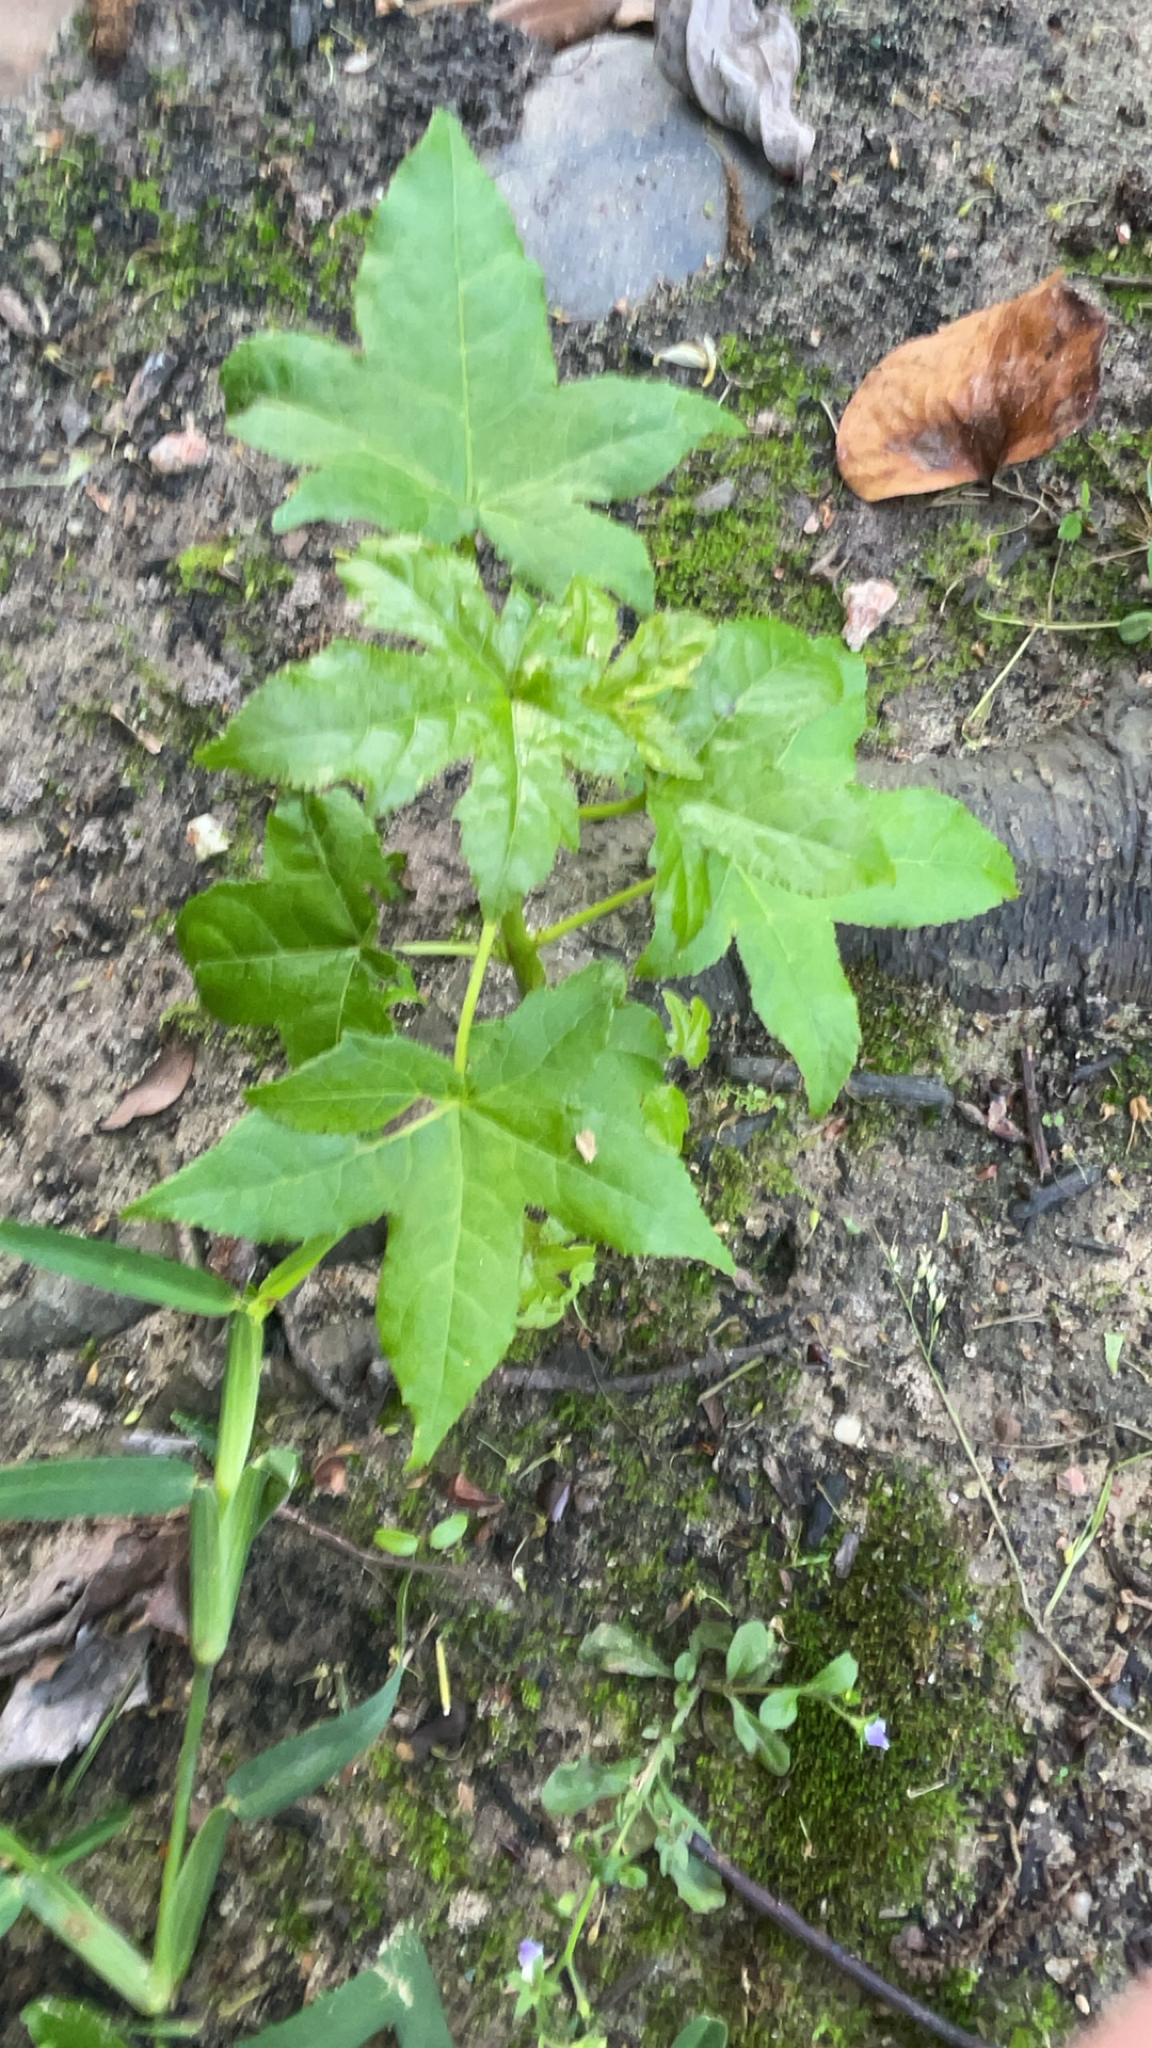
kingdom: Plantae
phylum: Tracheophyta
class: Magnoliopsida
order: Saxifragales
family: Altingiaceae
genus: Liquidambar
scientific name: Liquidambar styraciflua
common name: Sweet gum
